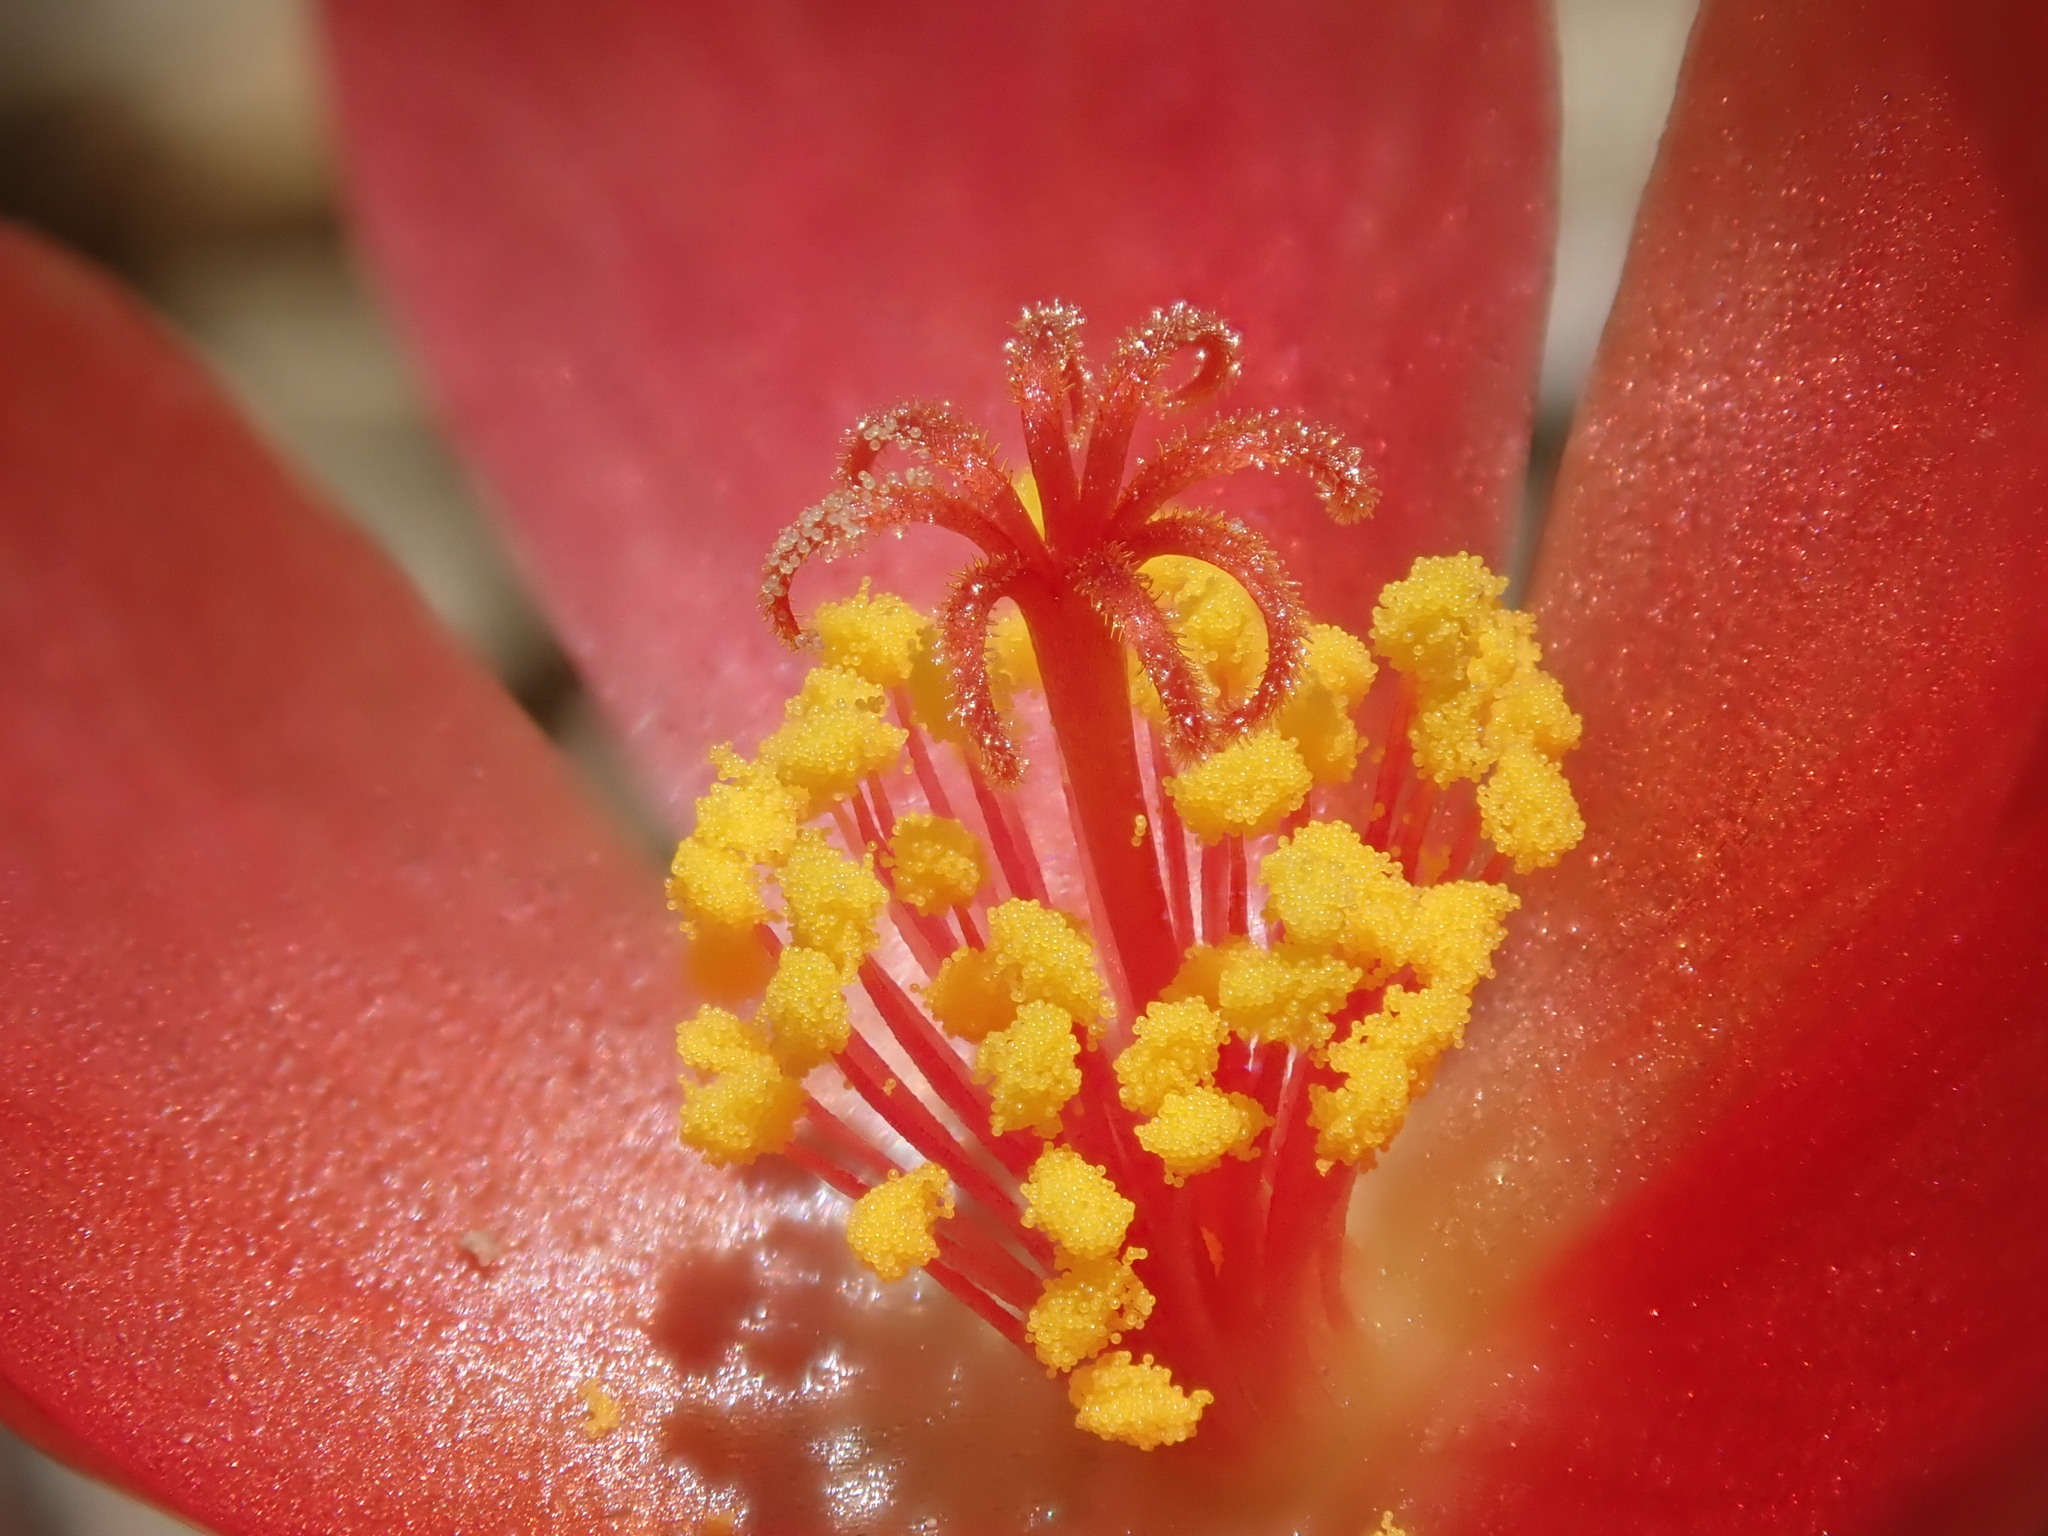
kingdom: Plantae
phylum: Tracheophyta
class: Magnoliopsida
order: Caryophyllales
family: Portulacaceae
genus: Portulaca
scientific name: Portulaca pilosa
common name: Kiss me quick
